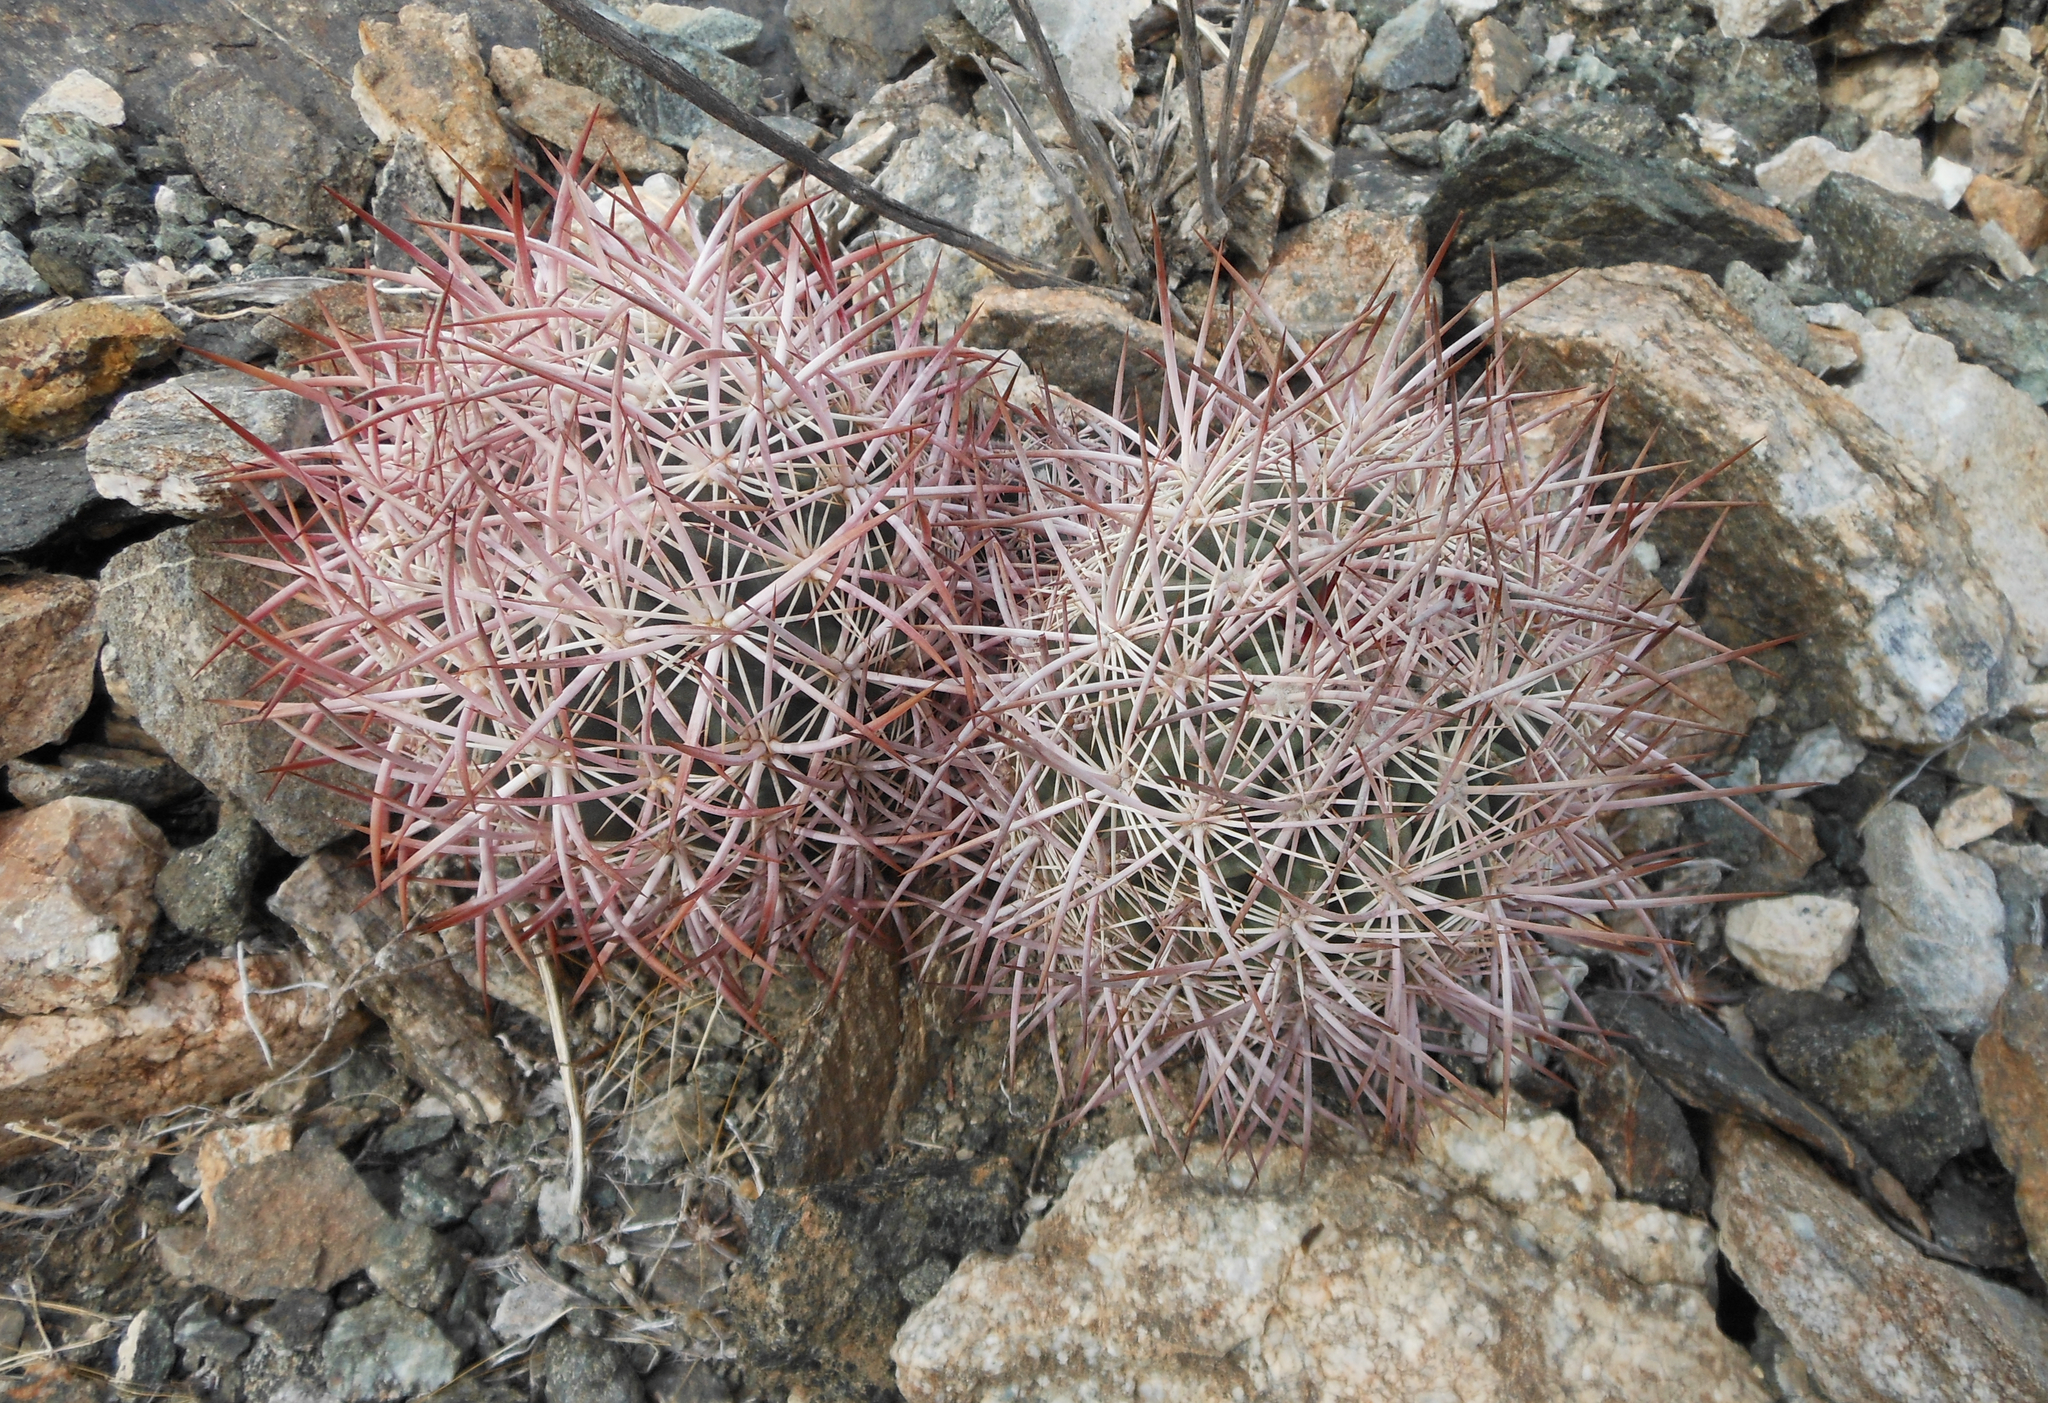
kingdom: Plantae
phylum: Tracheophyta
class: Magnoliopsida
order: Caryophyllales
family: Cactaceae
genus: Sclerocactus
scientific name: Sclerocactus johnsonii
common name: Eight-spine fishhook cactus
